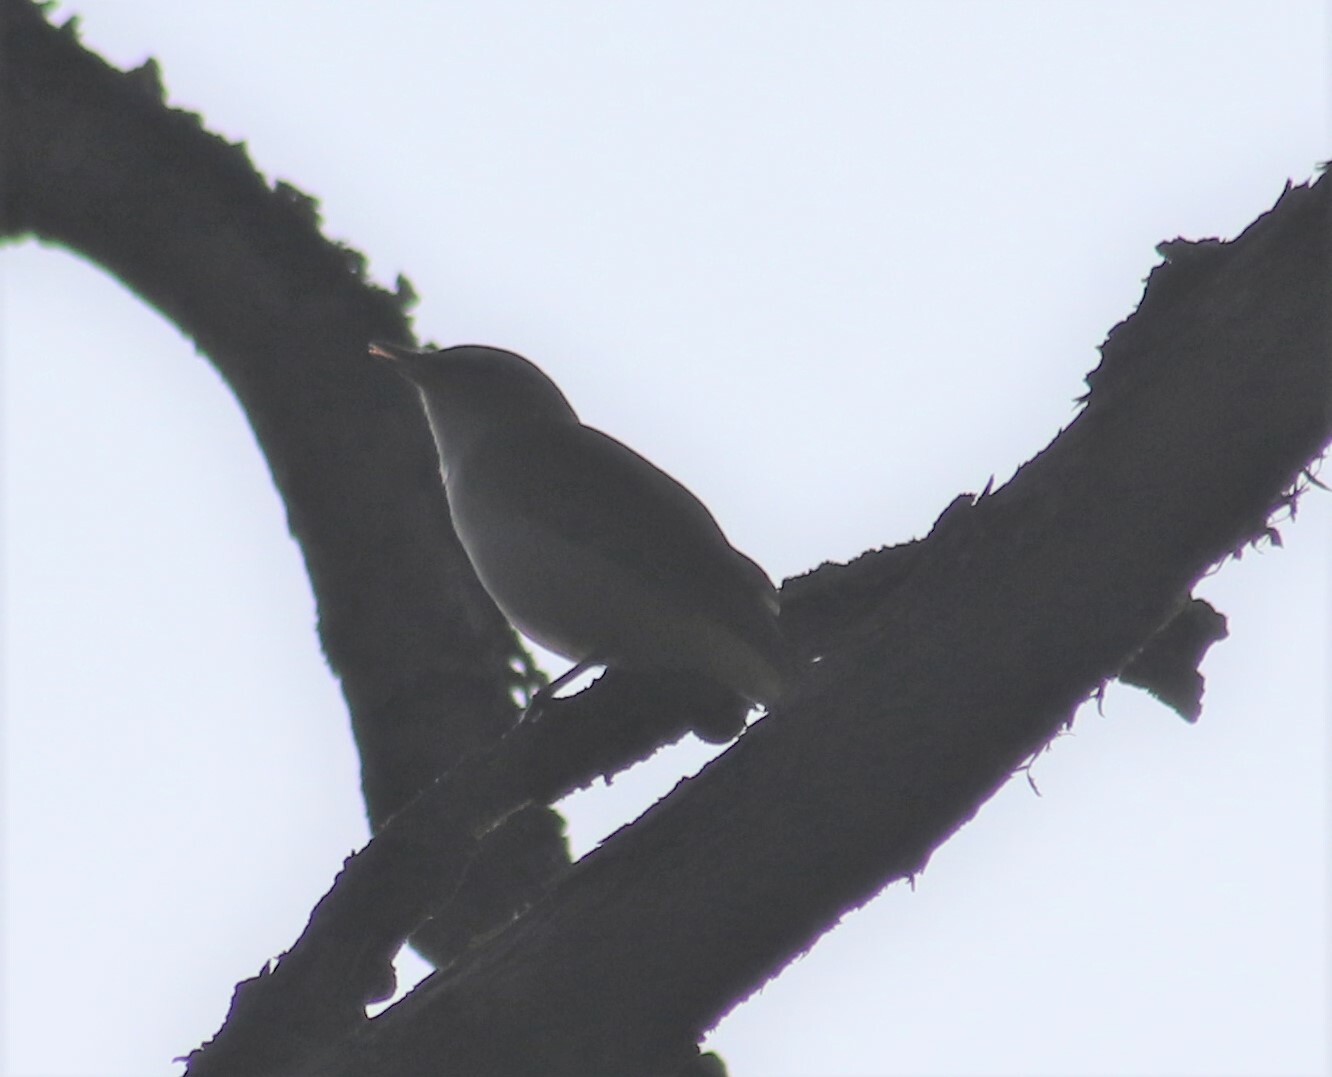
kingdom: Animalia
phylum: Chordata
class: Aves
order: Passeriformes
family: Vireonidae
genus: Vireo
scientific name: Vireo olivaceus
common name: Red-eyed vireo
